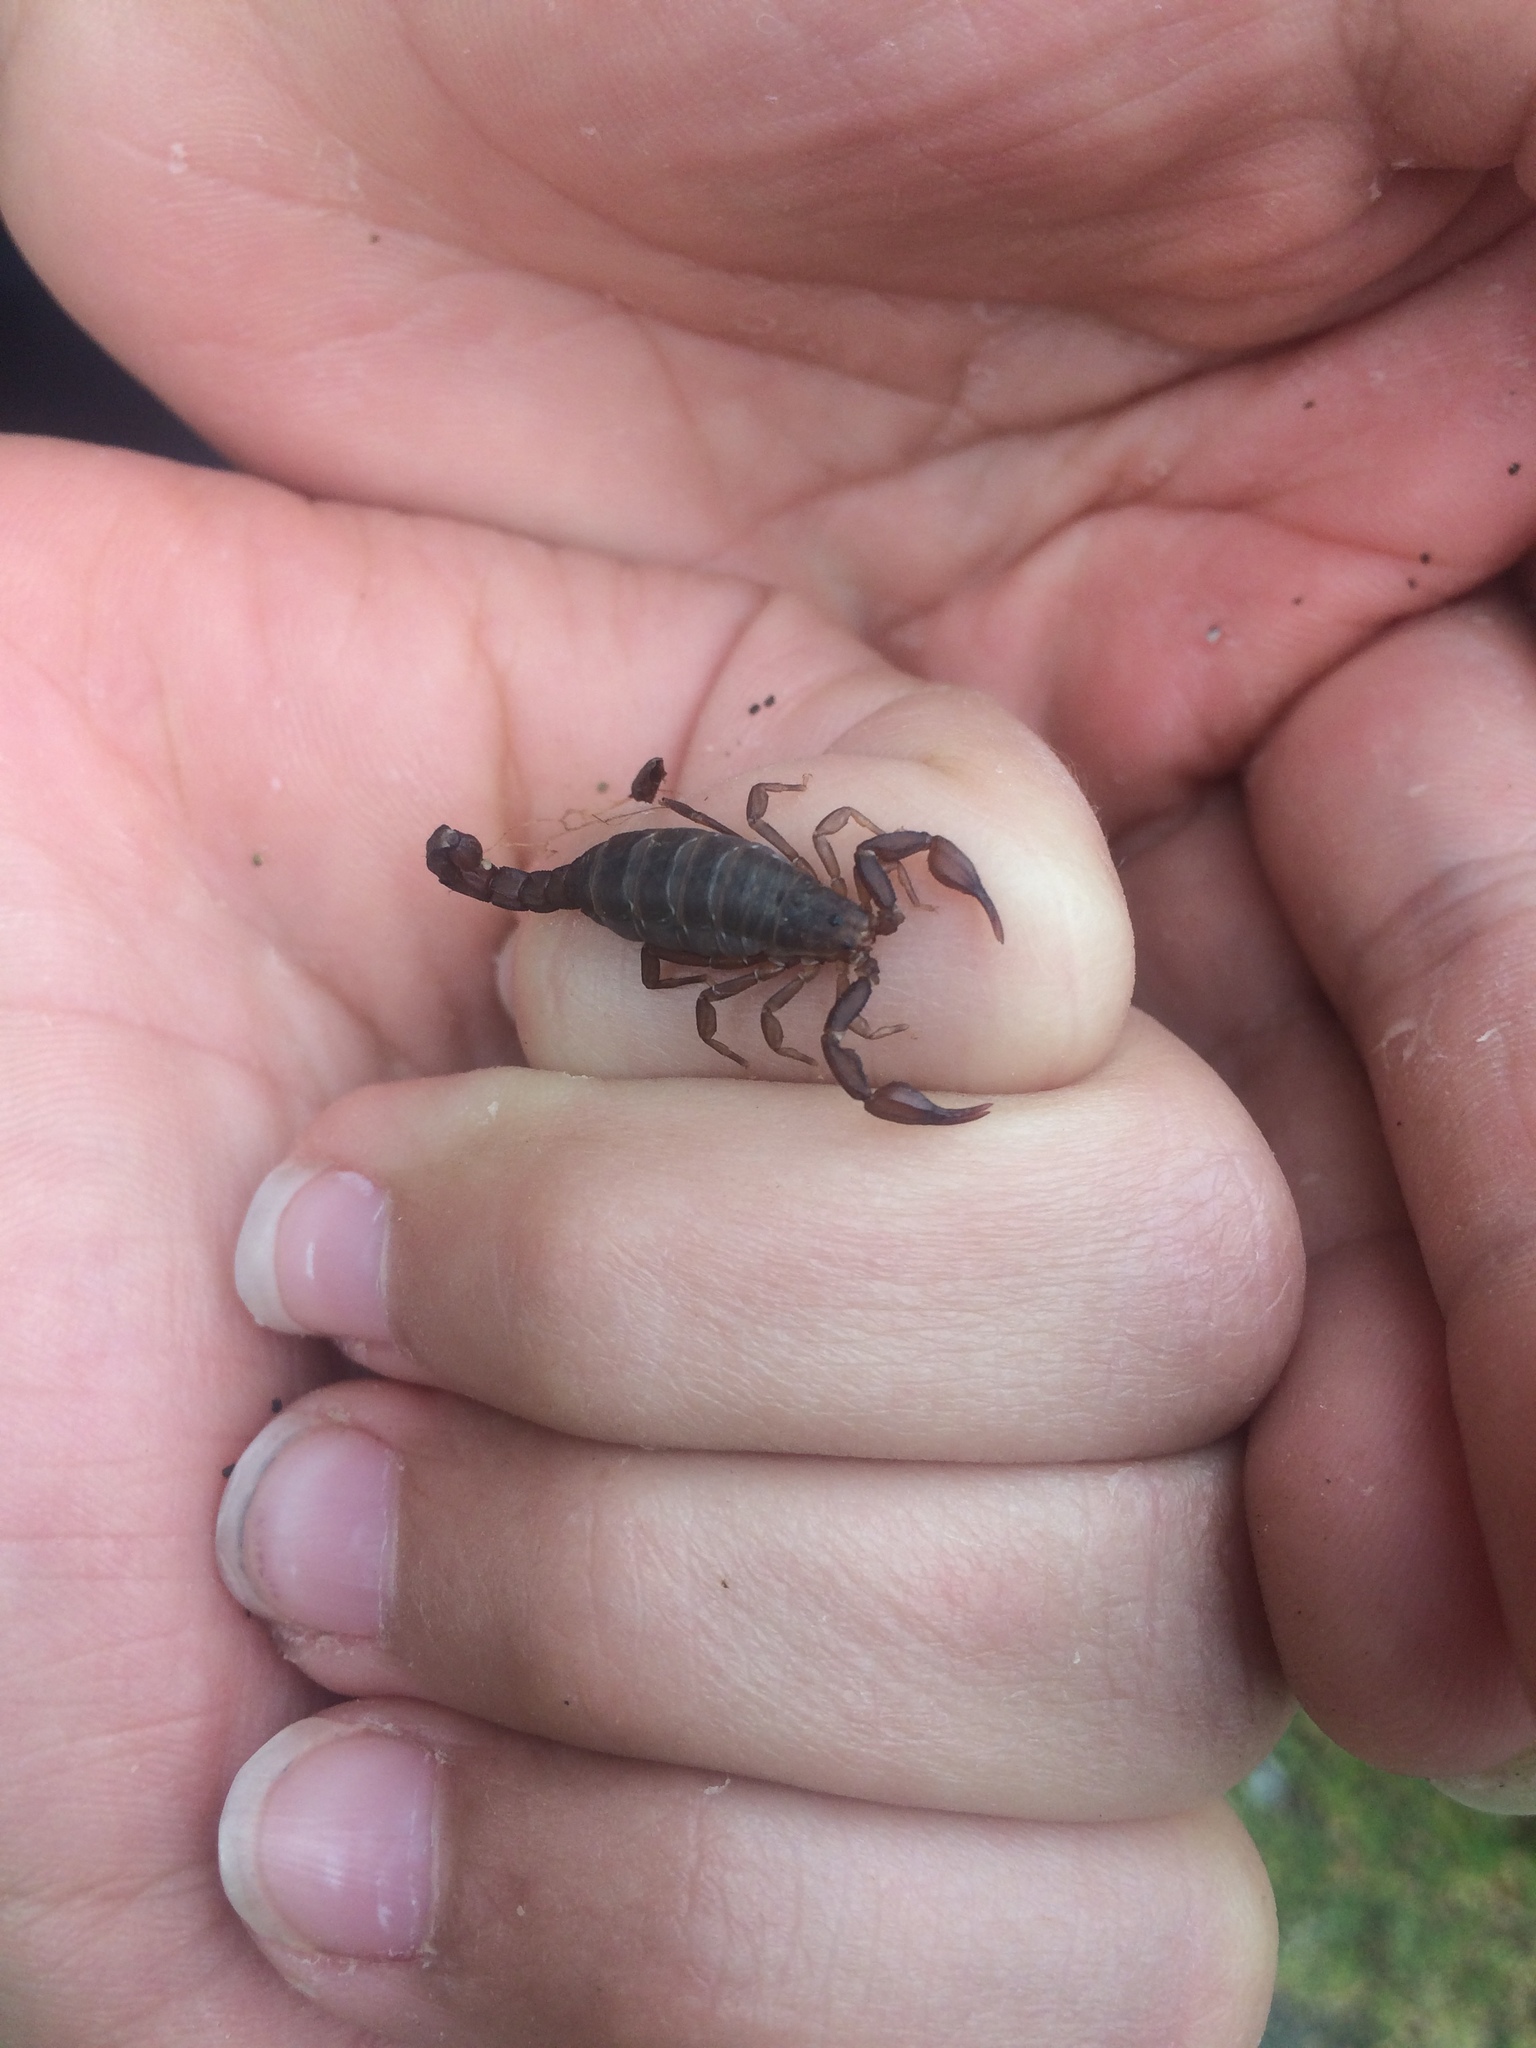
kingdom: Animalia
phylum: Arthropoda
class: Arachnida
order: Scorpiones
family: Vaejovidae
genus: Graemeloweus
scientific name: Graemeloweus iviei
